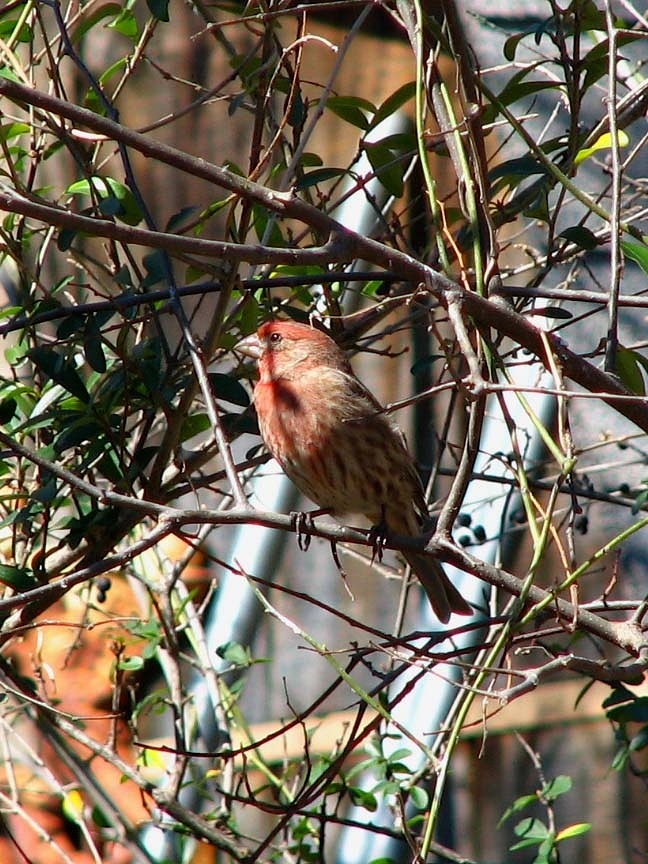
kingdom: Animalia
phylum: Chordata
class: Aves
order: Passeriformes
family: Fringillidae
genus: Haemorhous
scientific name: Haemorhous mexicanus
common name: House finch
